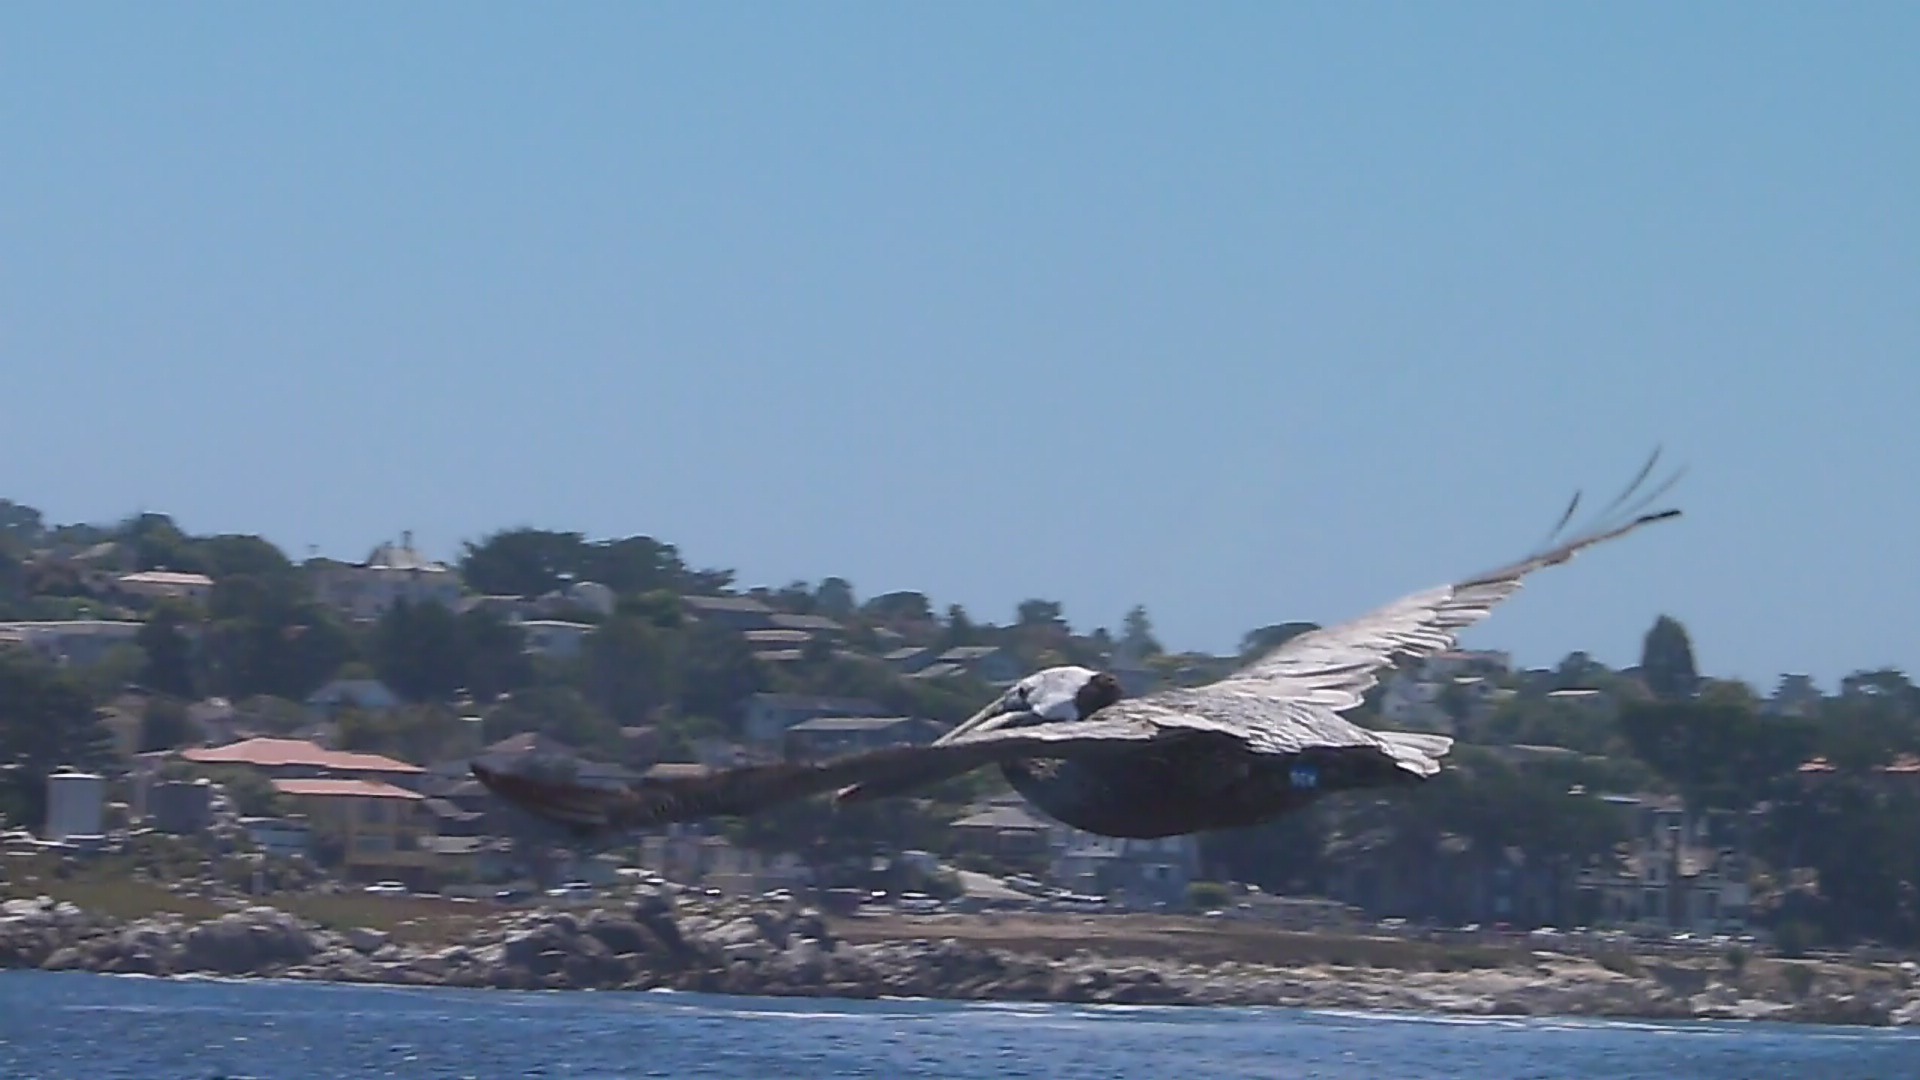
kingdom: Animalia
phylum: Chordata
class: Aves
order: Pelecaniformes
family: Pelecanidae
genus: Pelecanus
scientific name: Pelecanus occidentalis
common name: Brown pelican
